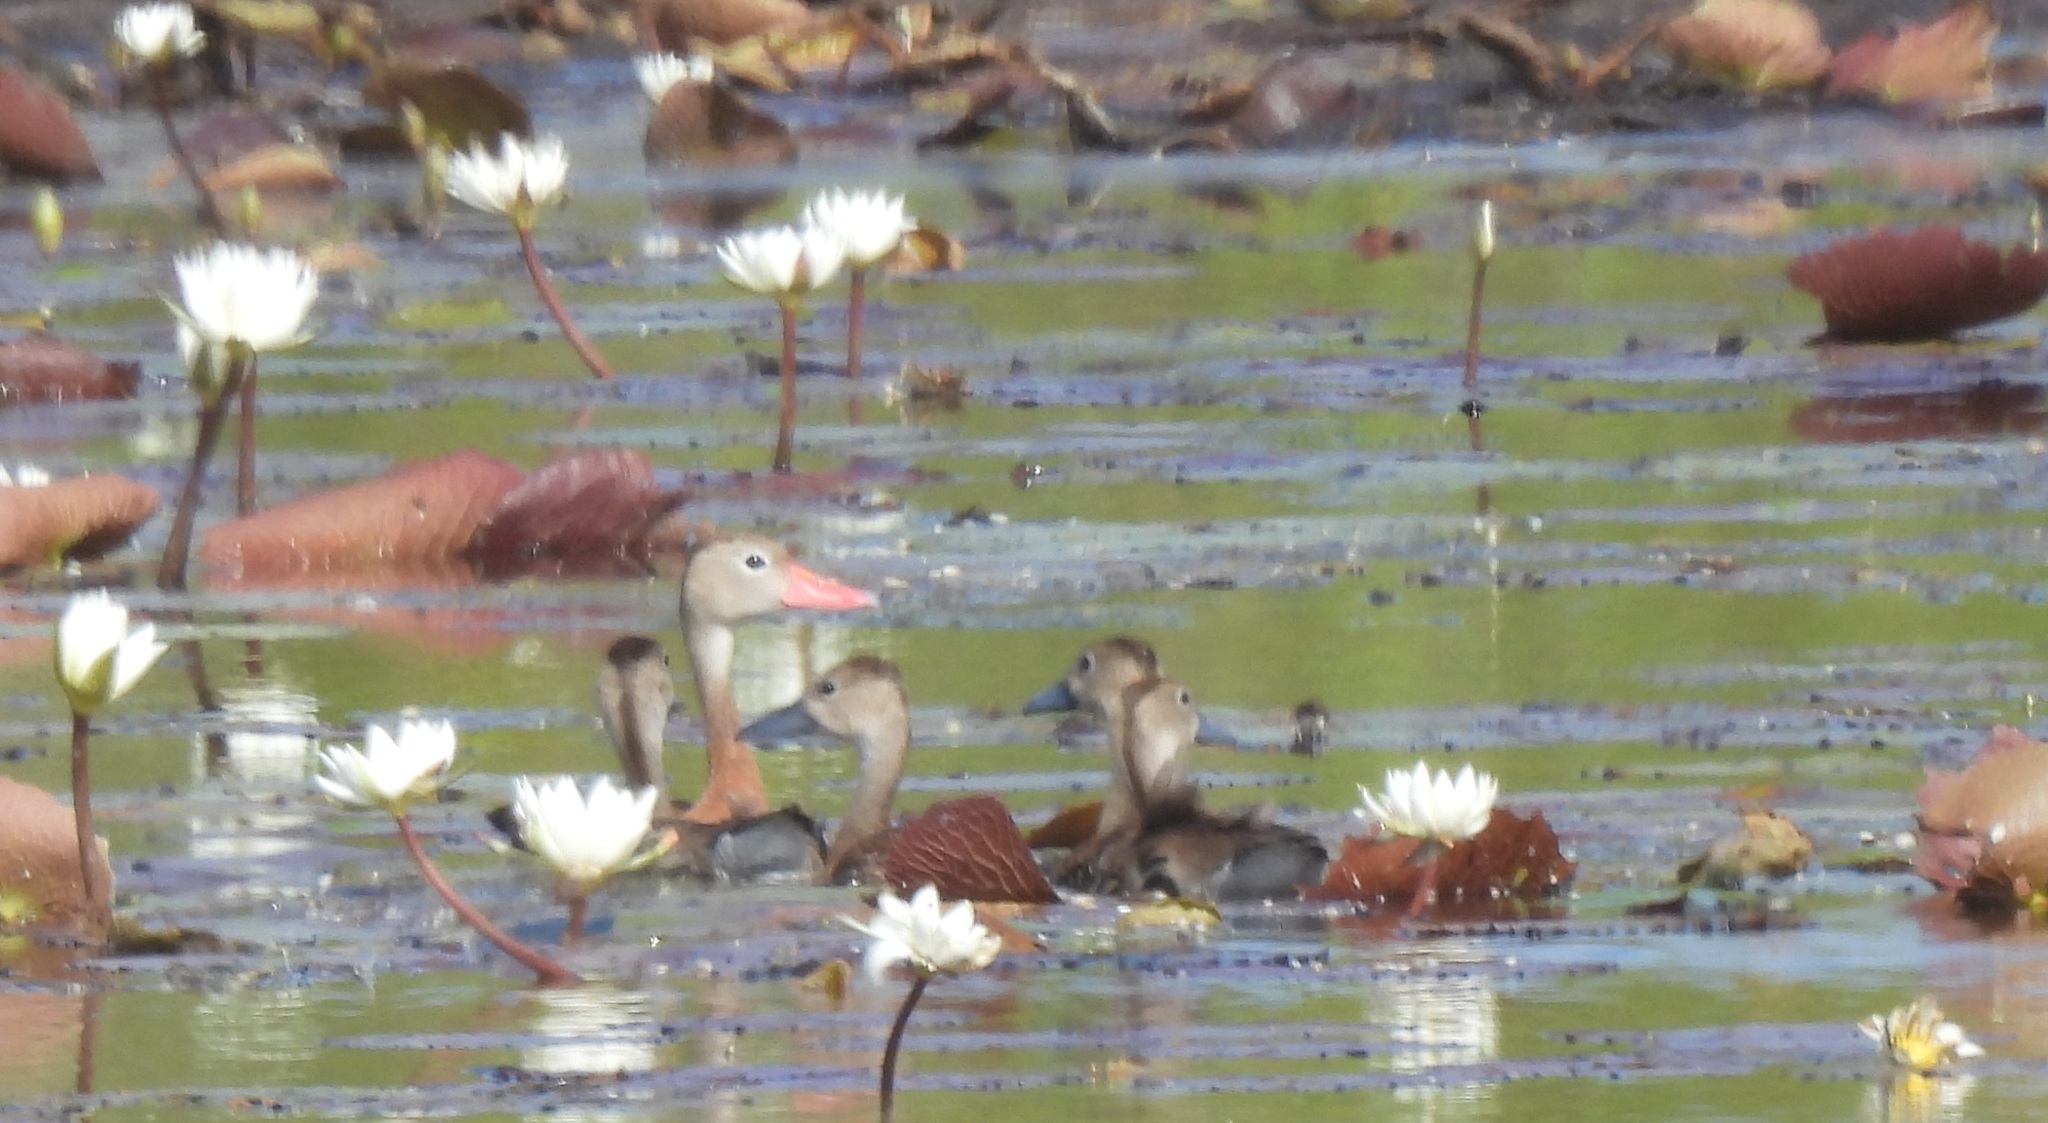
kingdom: Animalia
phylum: Chordata
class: Aves
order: Anseriformes
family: Anatidae
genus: Dendrocygna
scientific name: Dendrocygna autumnalis
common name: Black-bellied whistling duck
